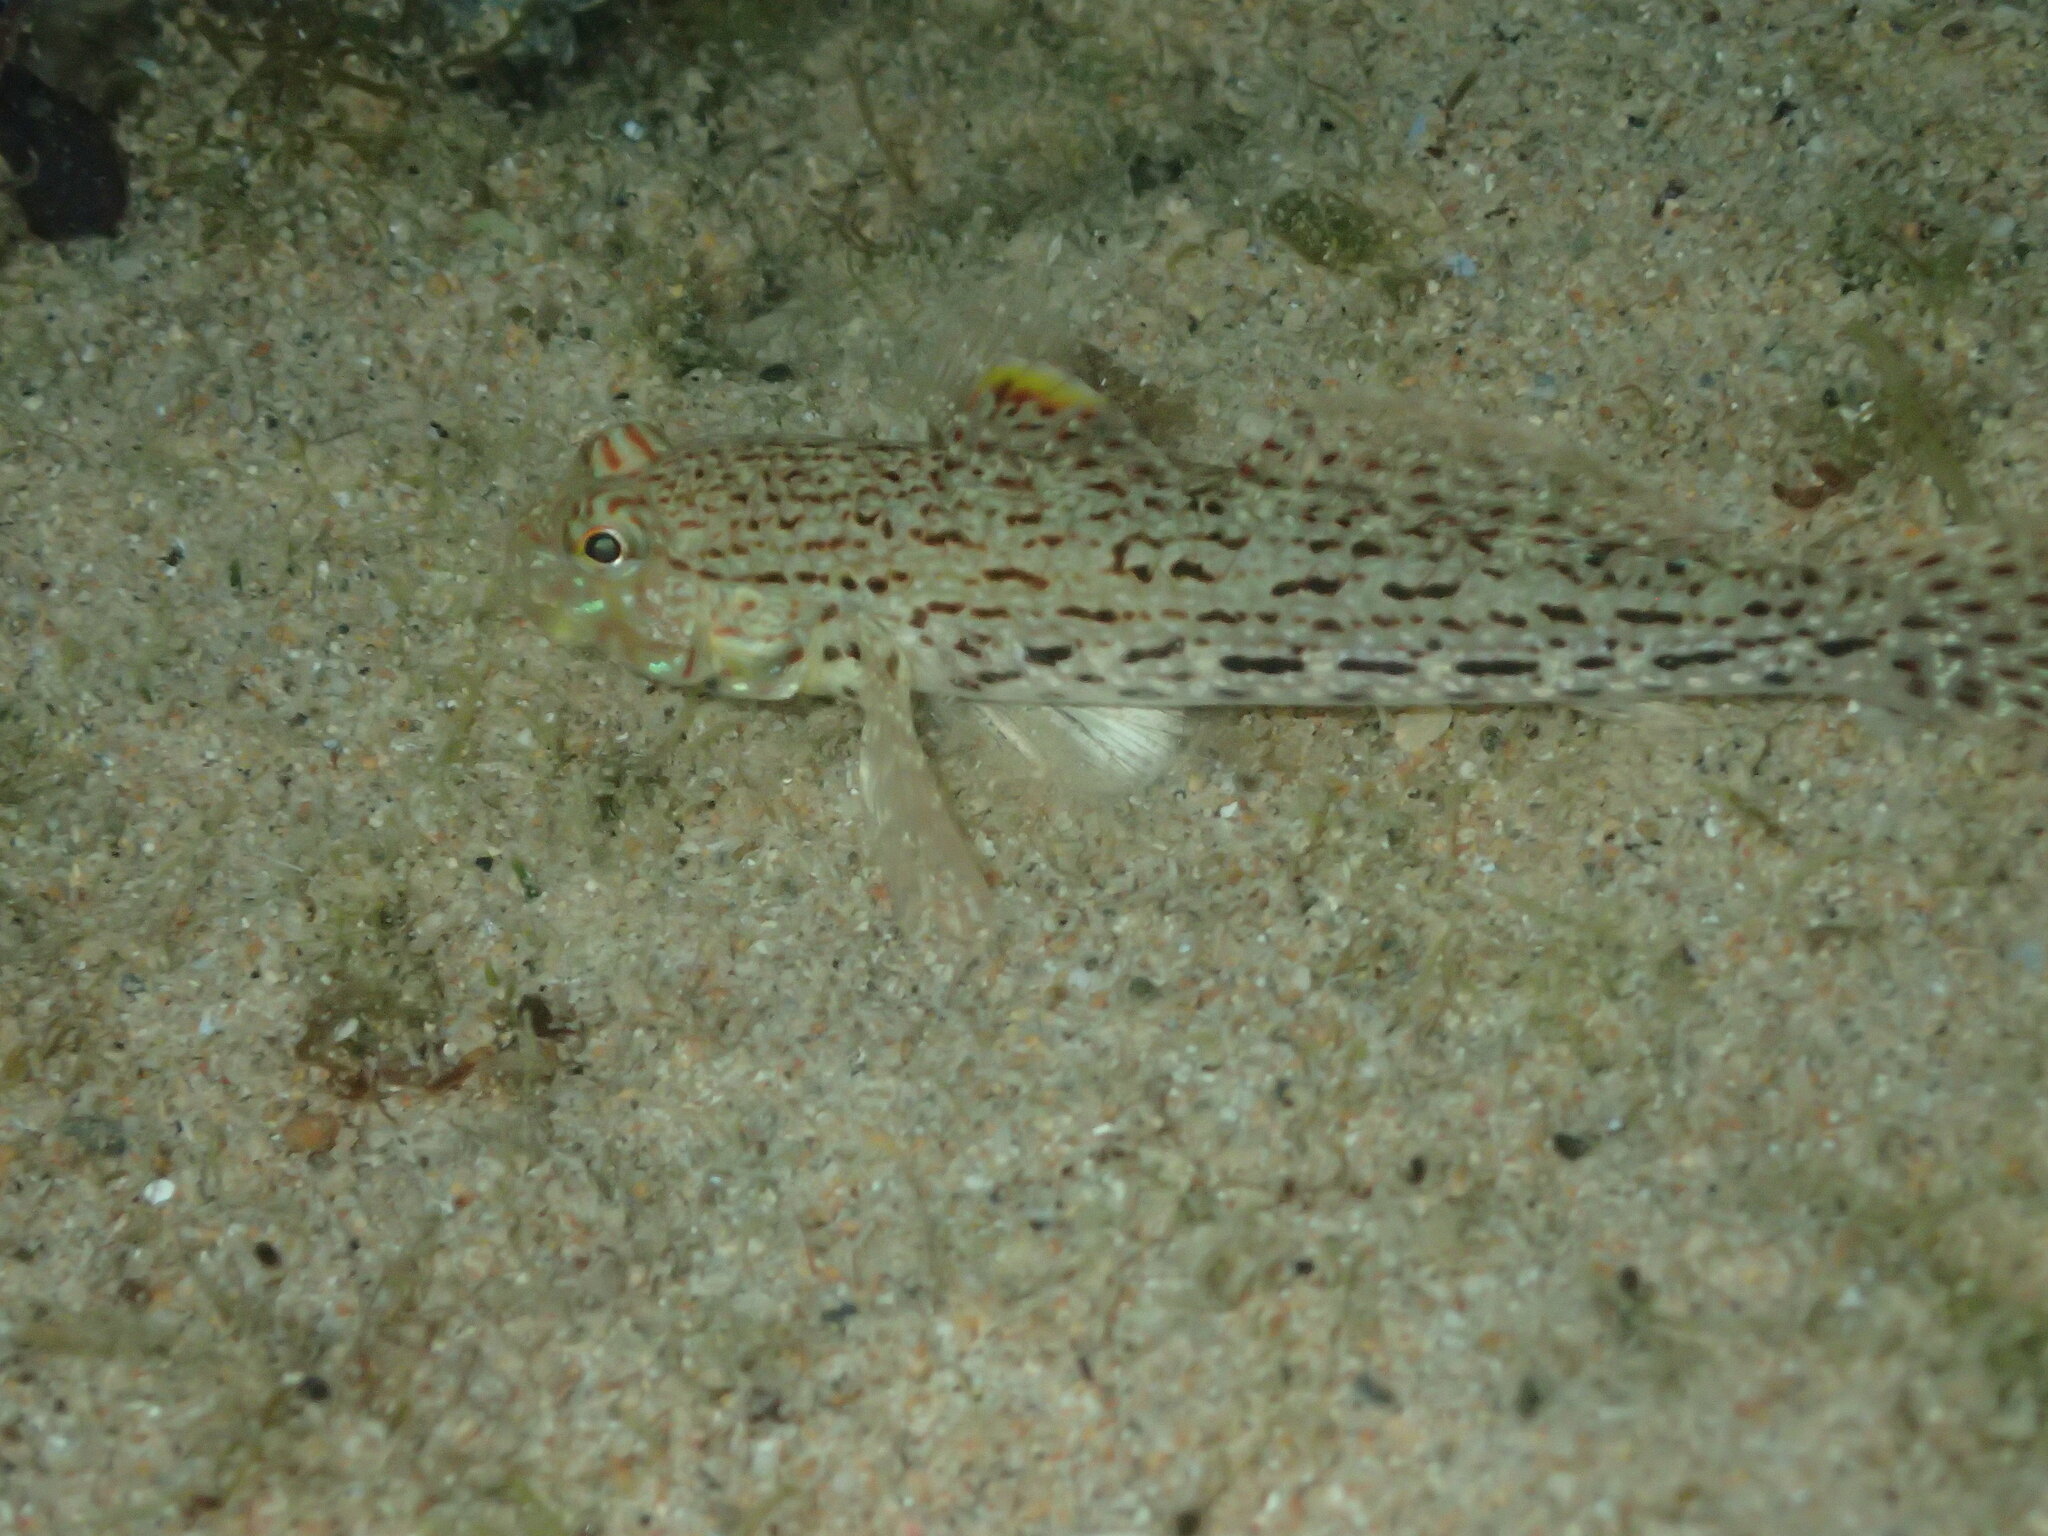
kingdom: Animalia
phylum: Chordata
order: Perciformes
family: Gobiidae
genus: Istigobius
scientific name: Istigobius ornatus
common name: Ornate goby
